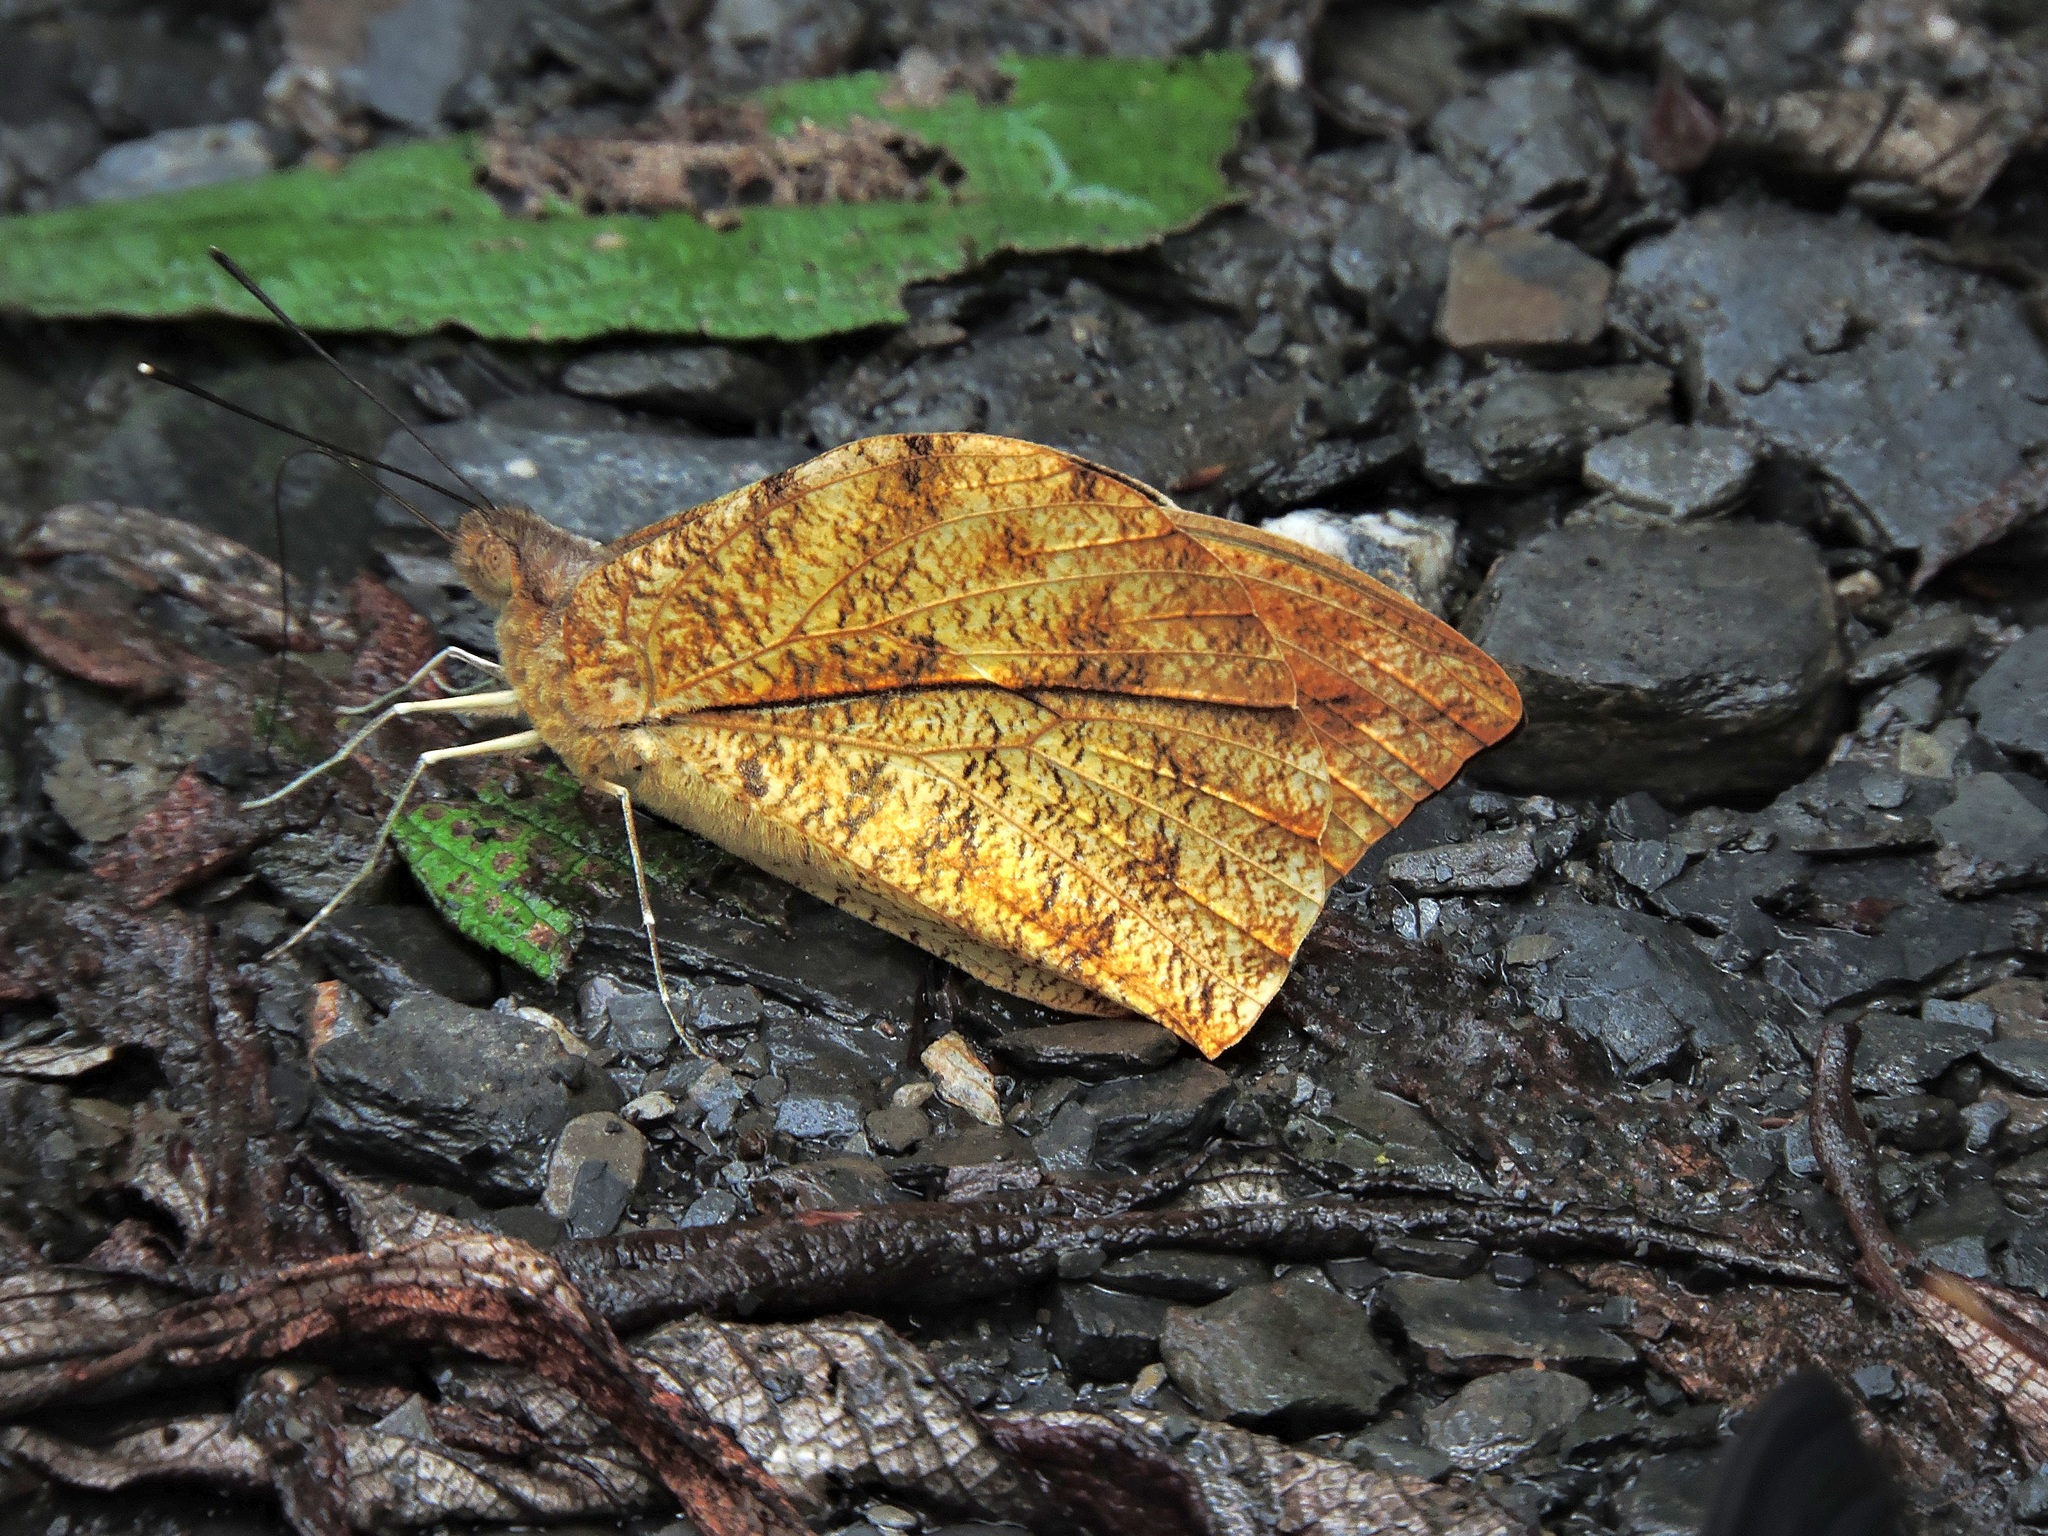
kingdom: Animalia
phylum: Arthropoda
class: Insecta
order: Lepidoptera
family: Pieridae
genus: Hebomoia
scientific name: Hebomoia glaucippe
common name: Great orange tip
